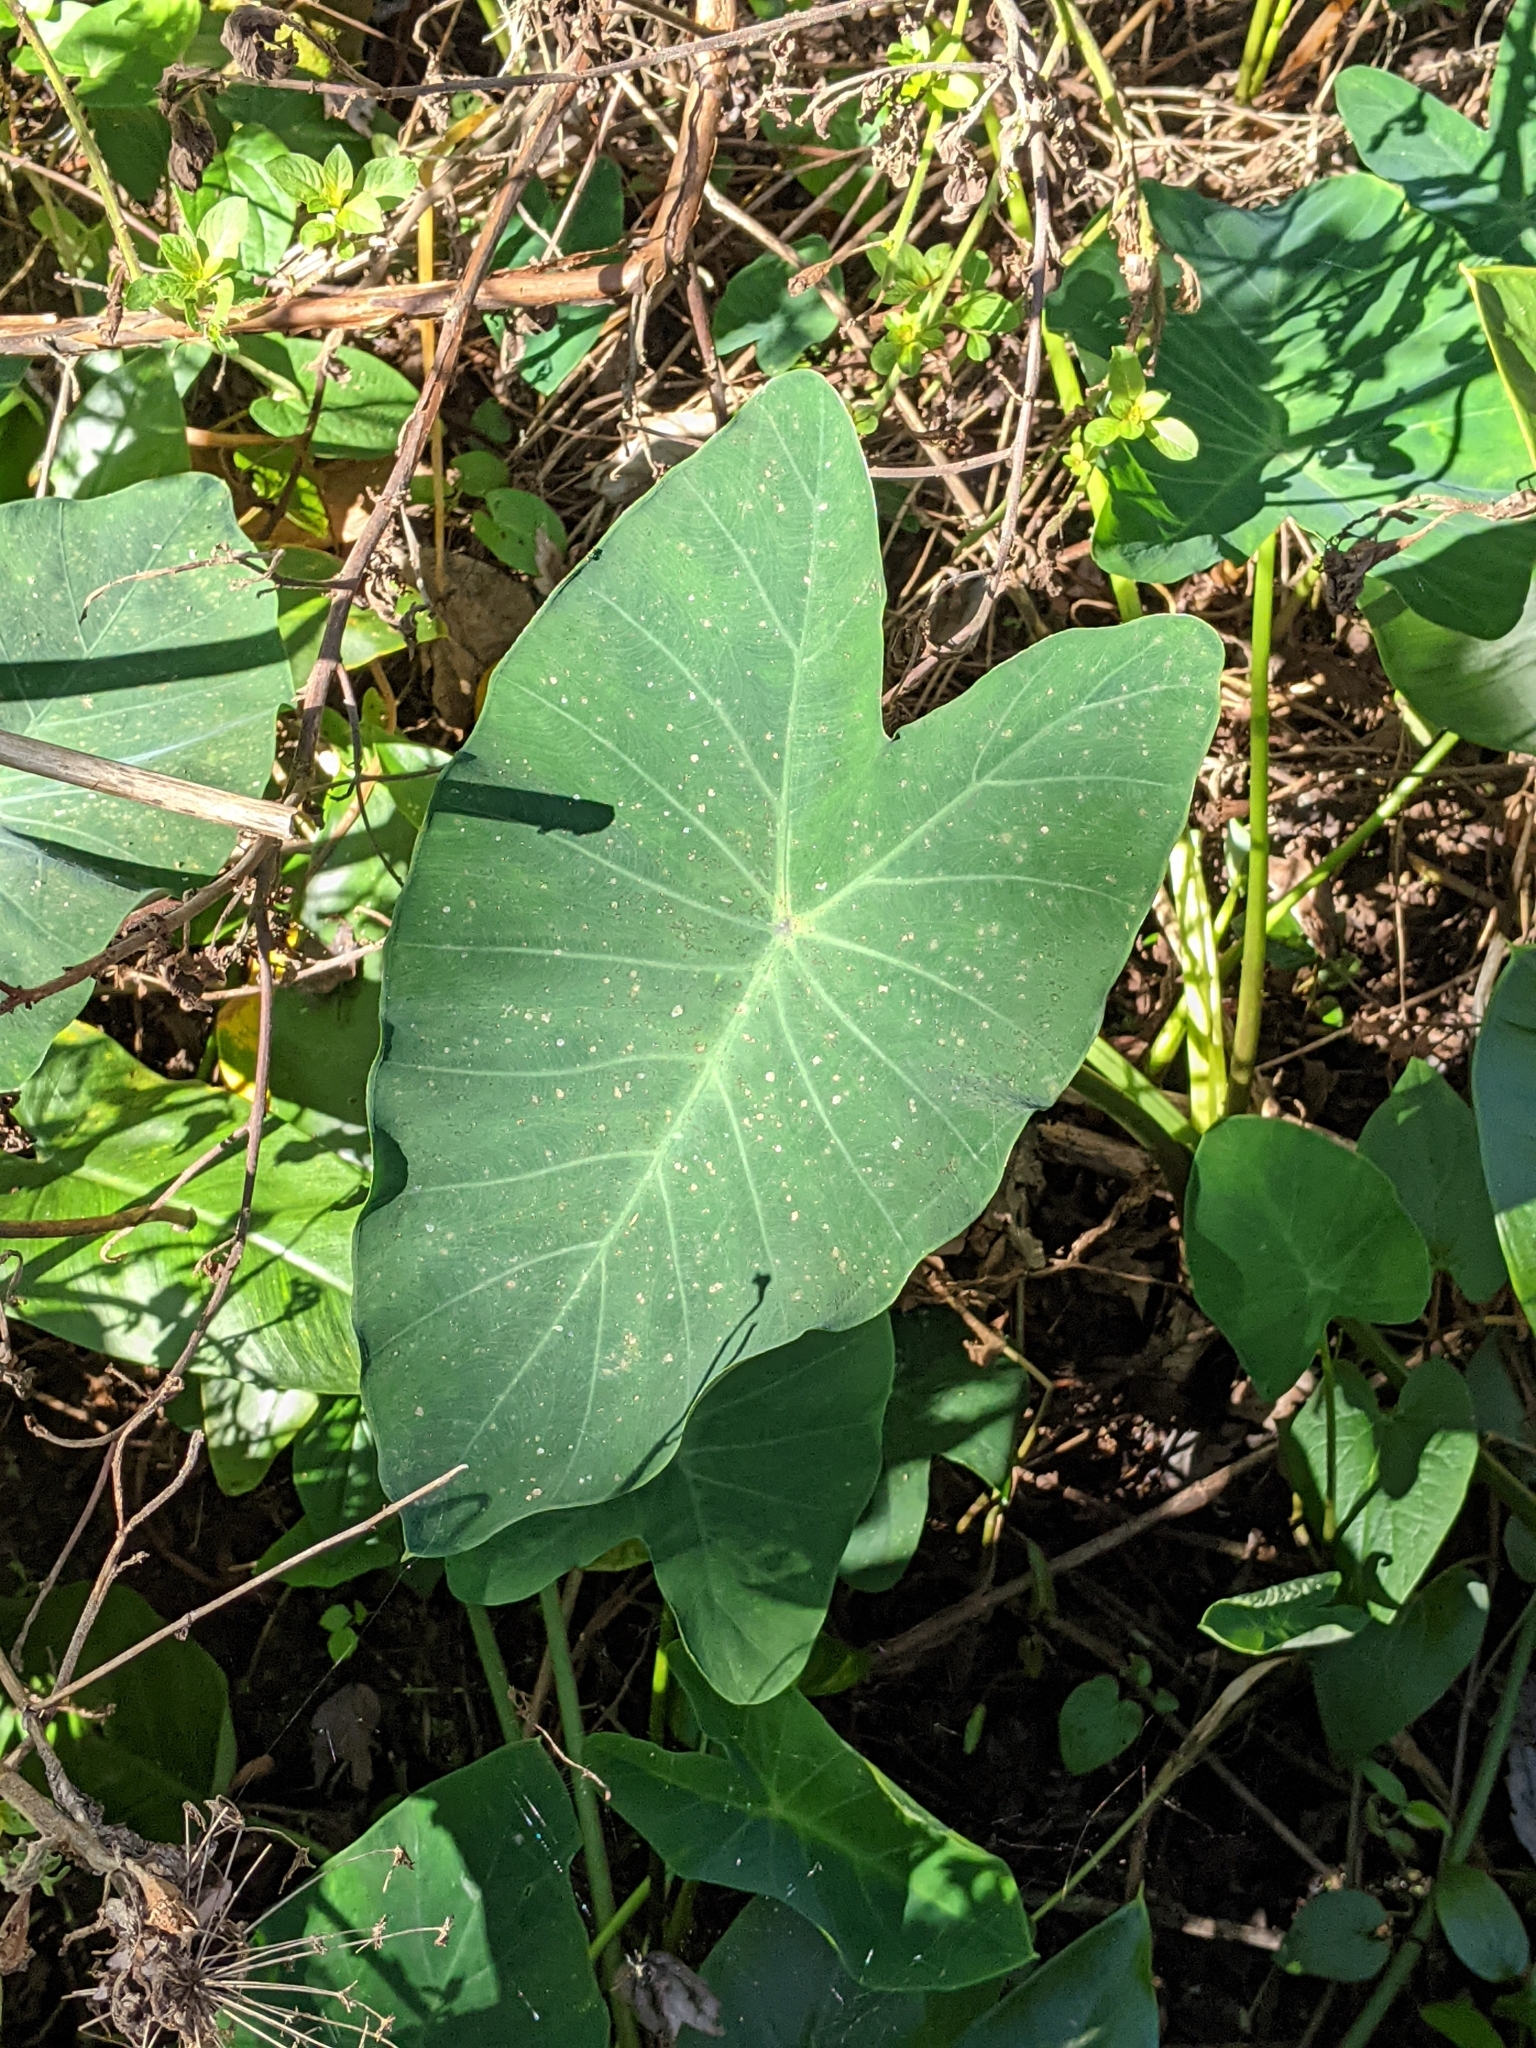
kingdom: Plantae
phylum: Tracheophyta
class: Liliopsida
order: Alismatales
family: Araceae
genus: Colocasia
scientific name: Colocasia esculenta
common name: Taro
